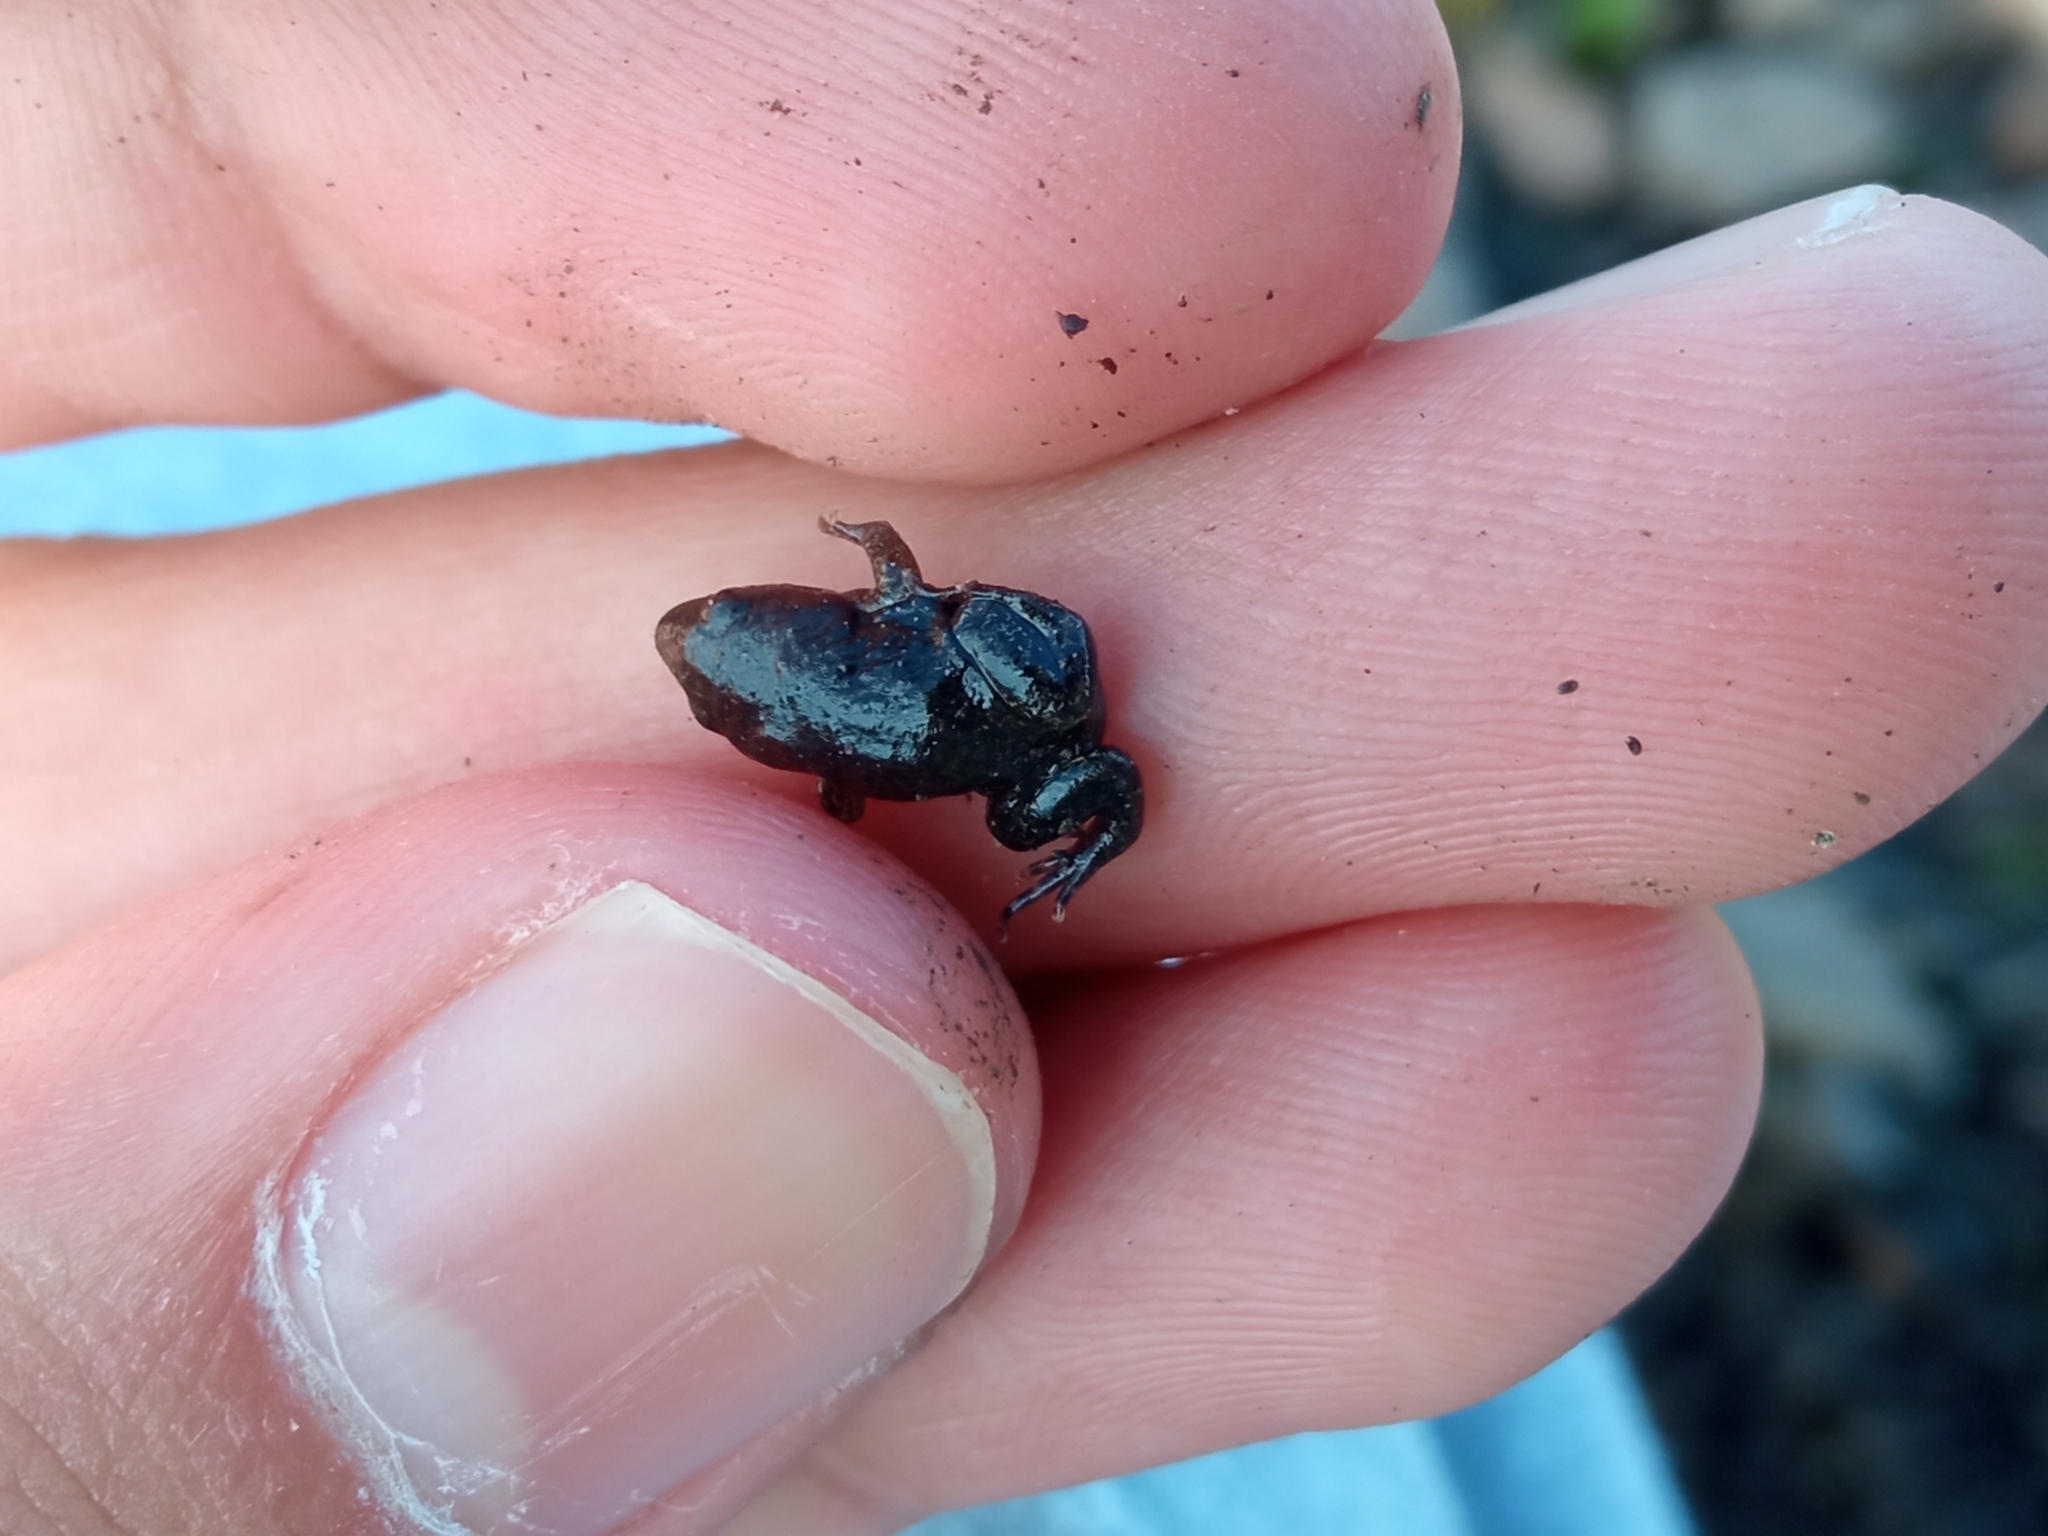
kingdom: Animalia
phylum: Chordata
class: Amphibia
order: Anura
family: Microhylidae
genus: Elachistocleis
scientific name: Elachistocleis bicolor
